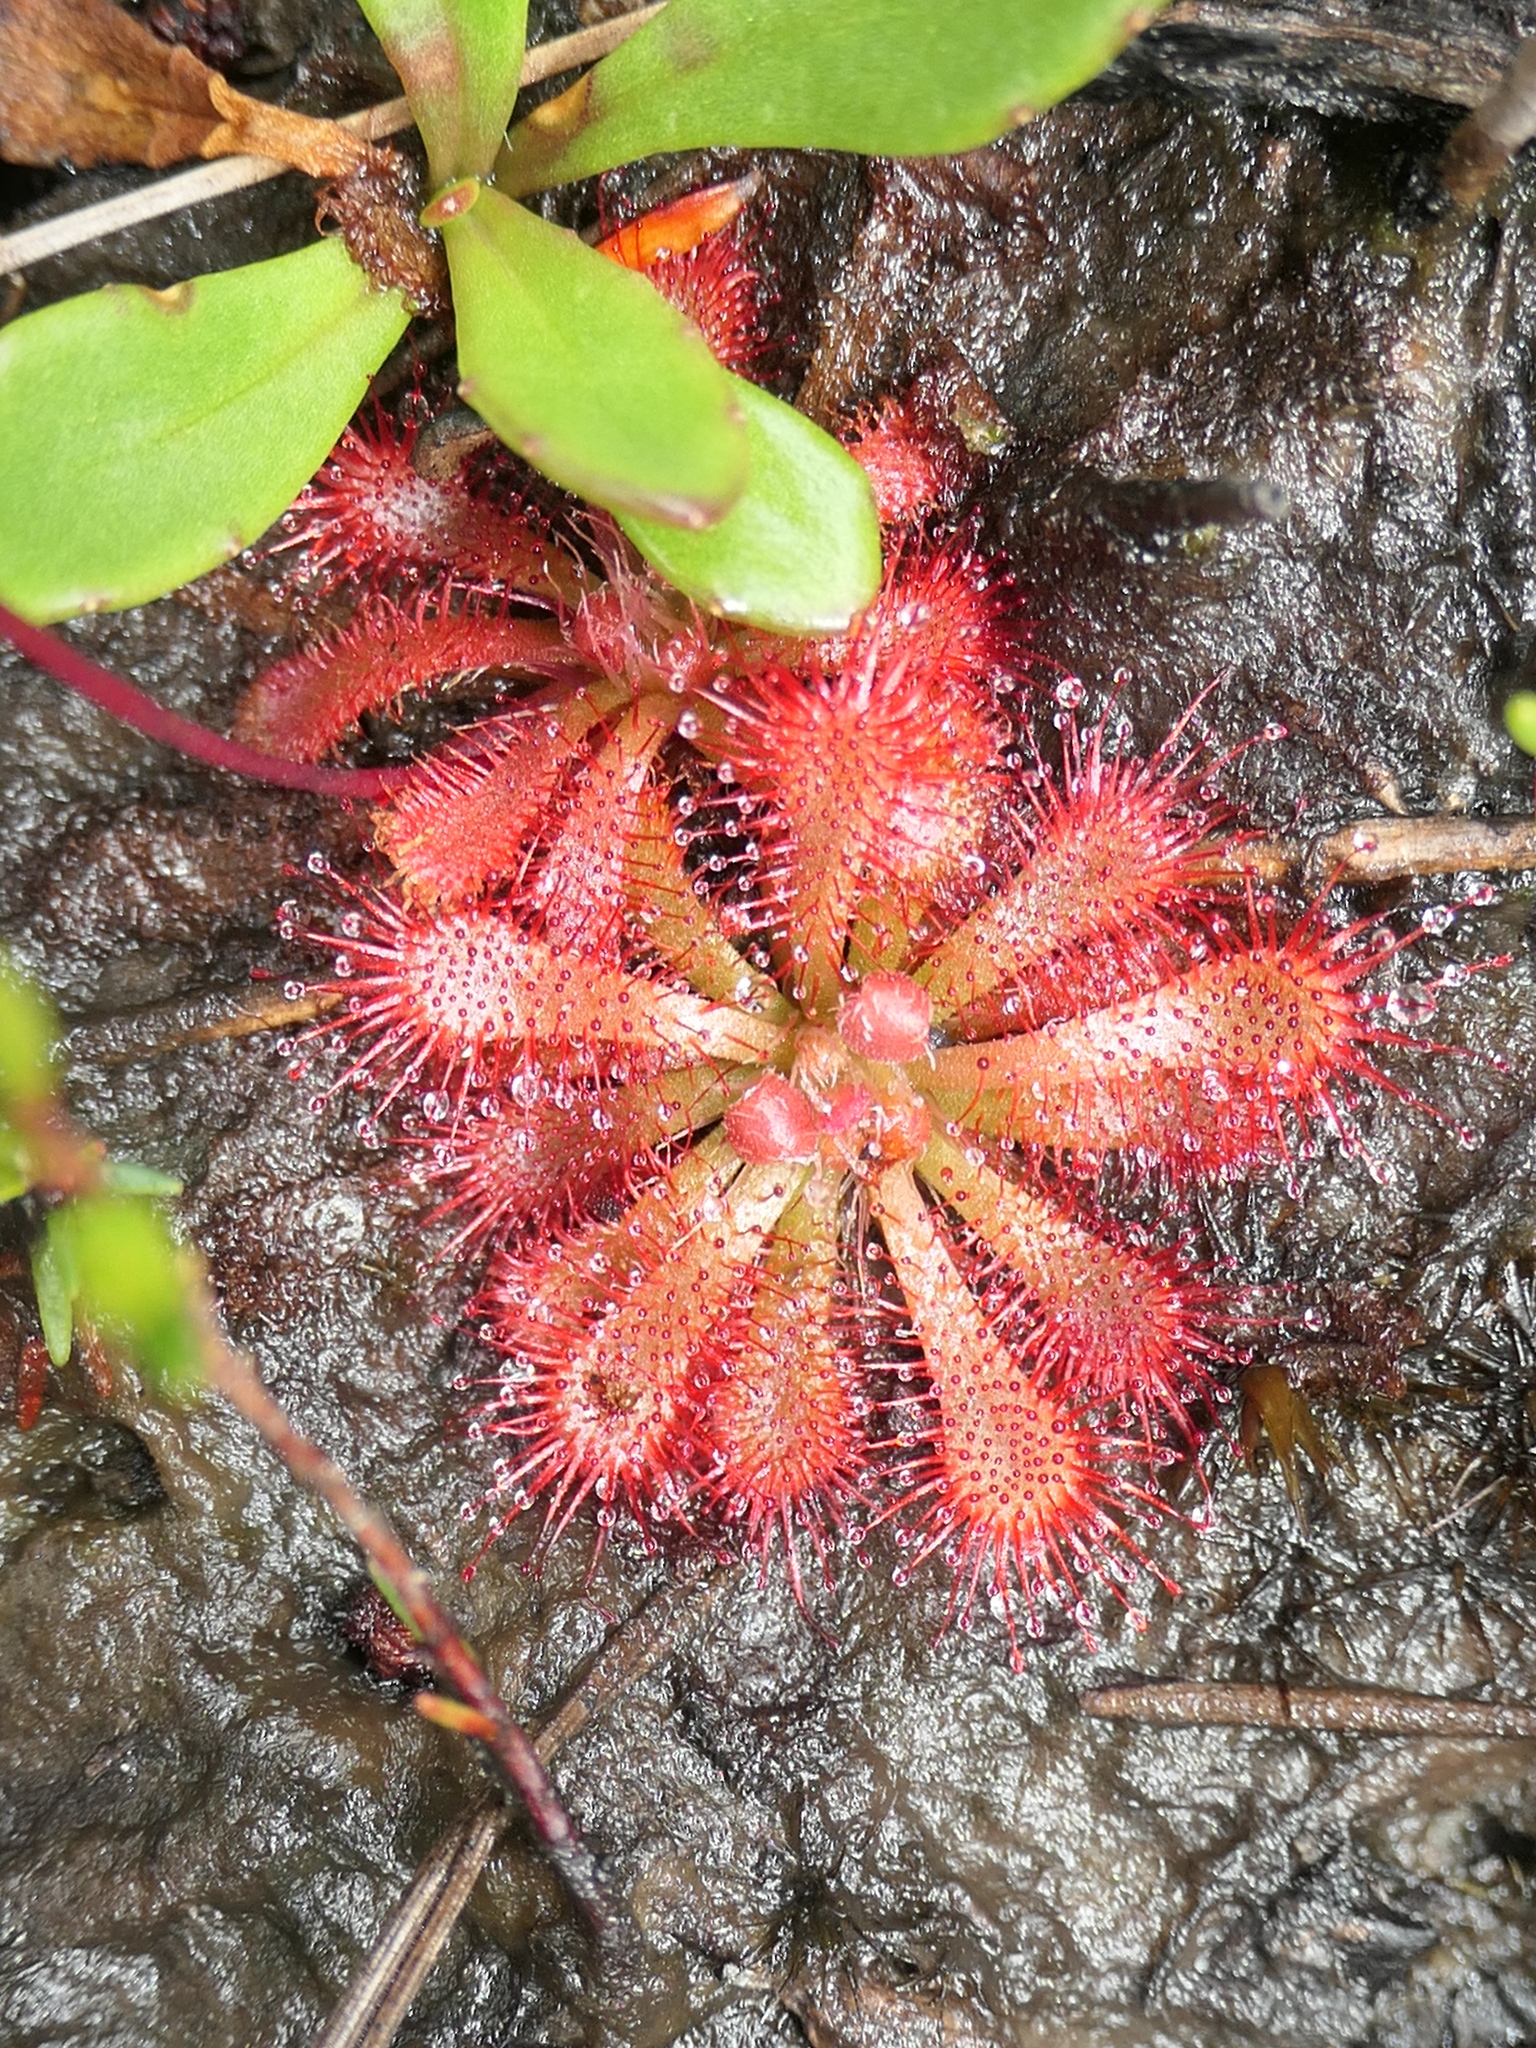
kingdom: Plantae
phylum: Tracheophyta
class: Magnoliopsida
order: Caryophyllales
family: Droseraceae
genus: Drosera
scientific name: Drosera spatulata
